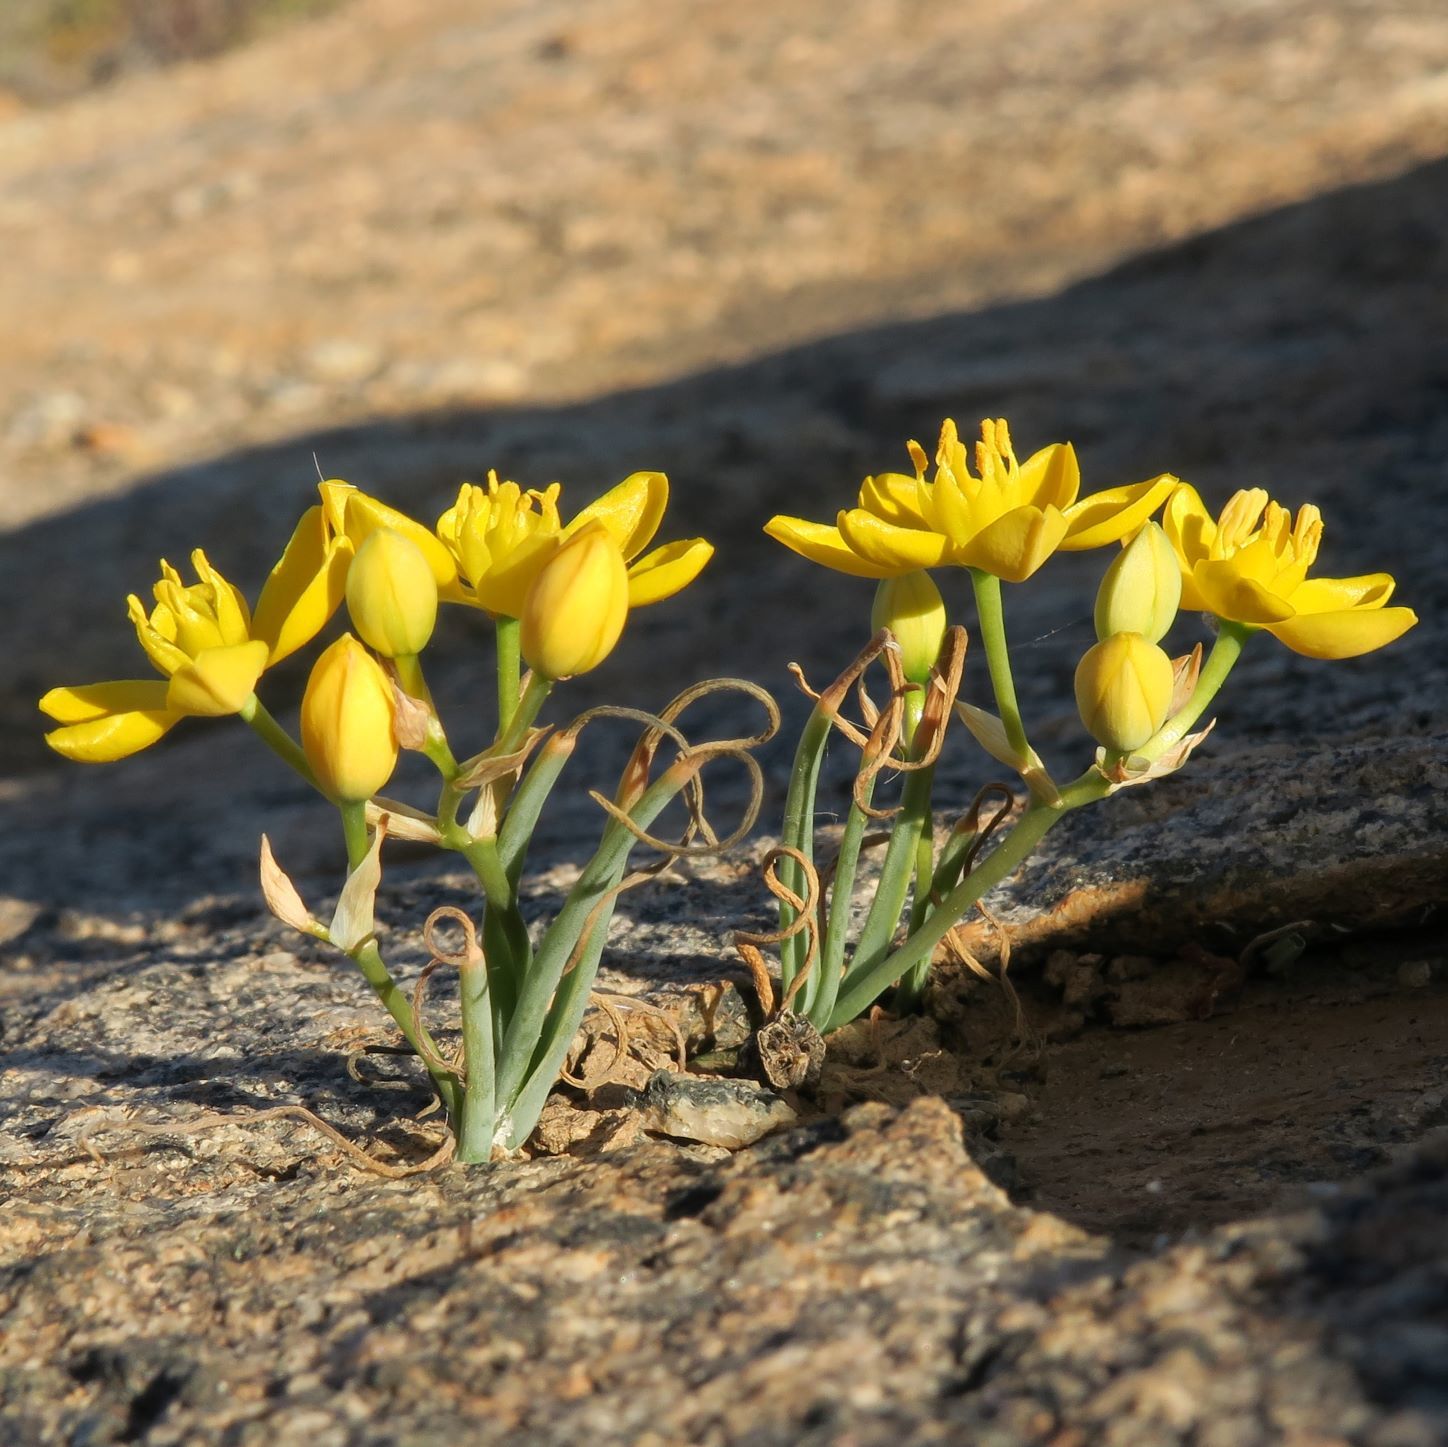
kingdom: Plantae
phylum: Tracheophyta
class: Liliopsida
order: Asparagales
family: Asparagaceae
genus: Ornithogalum
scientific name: Ornithogalum rupestre
